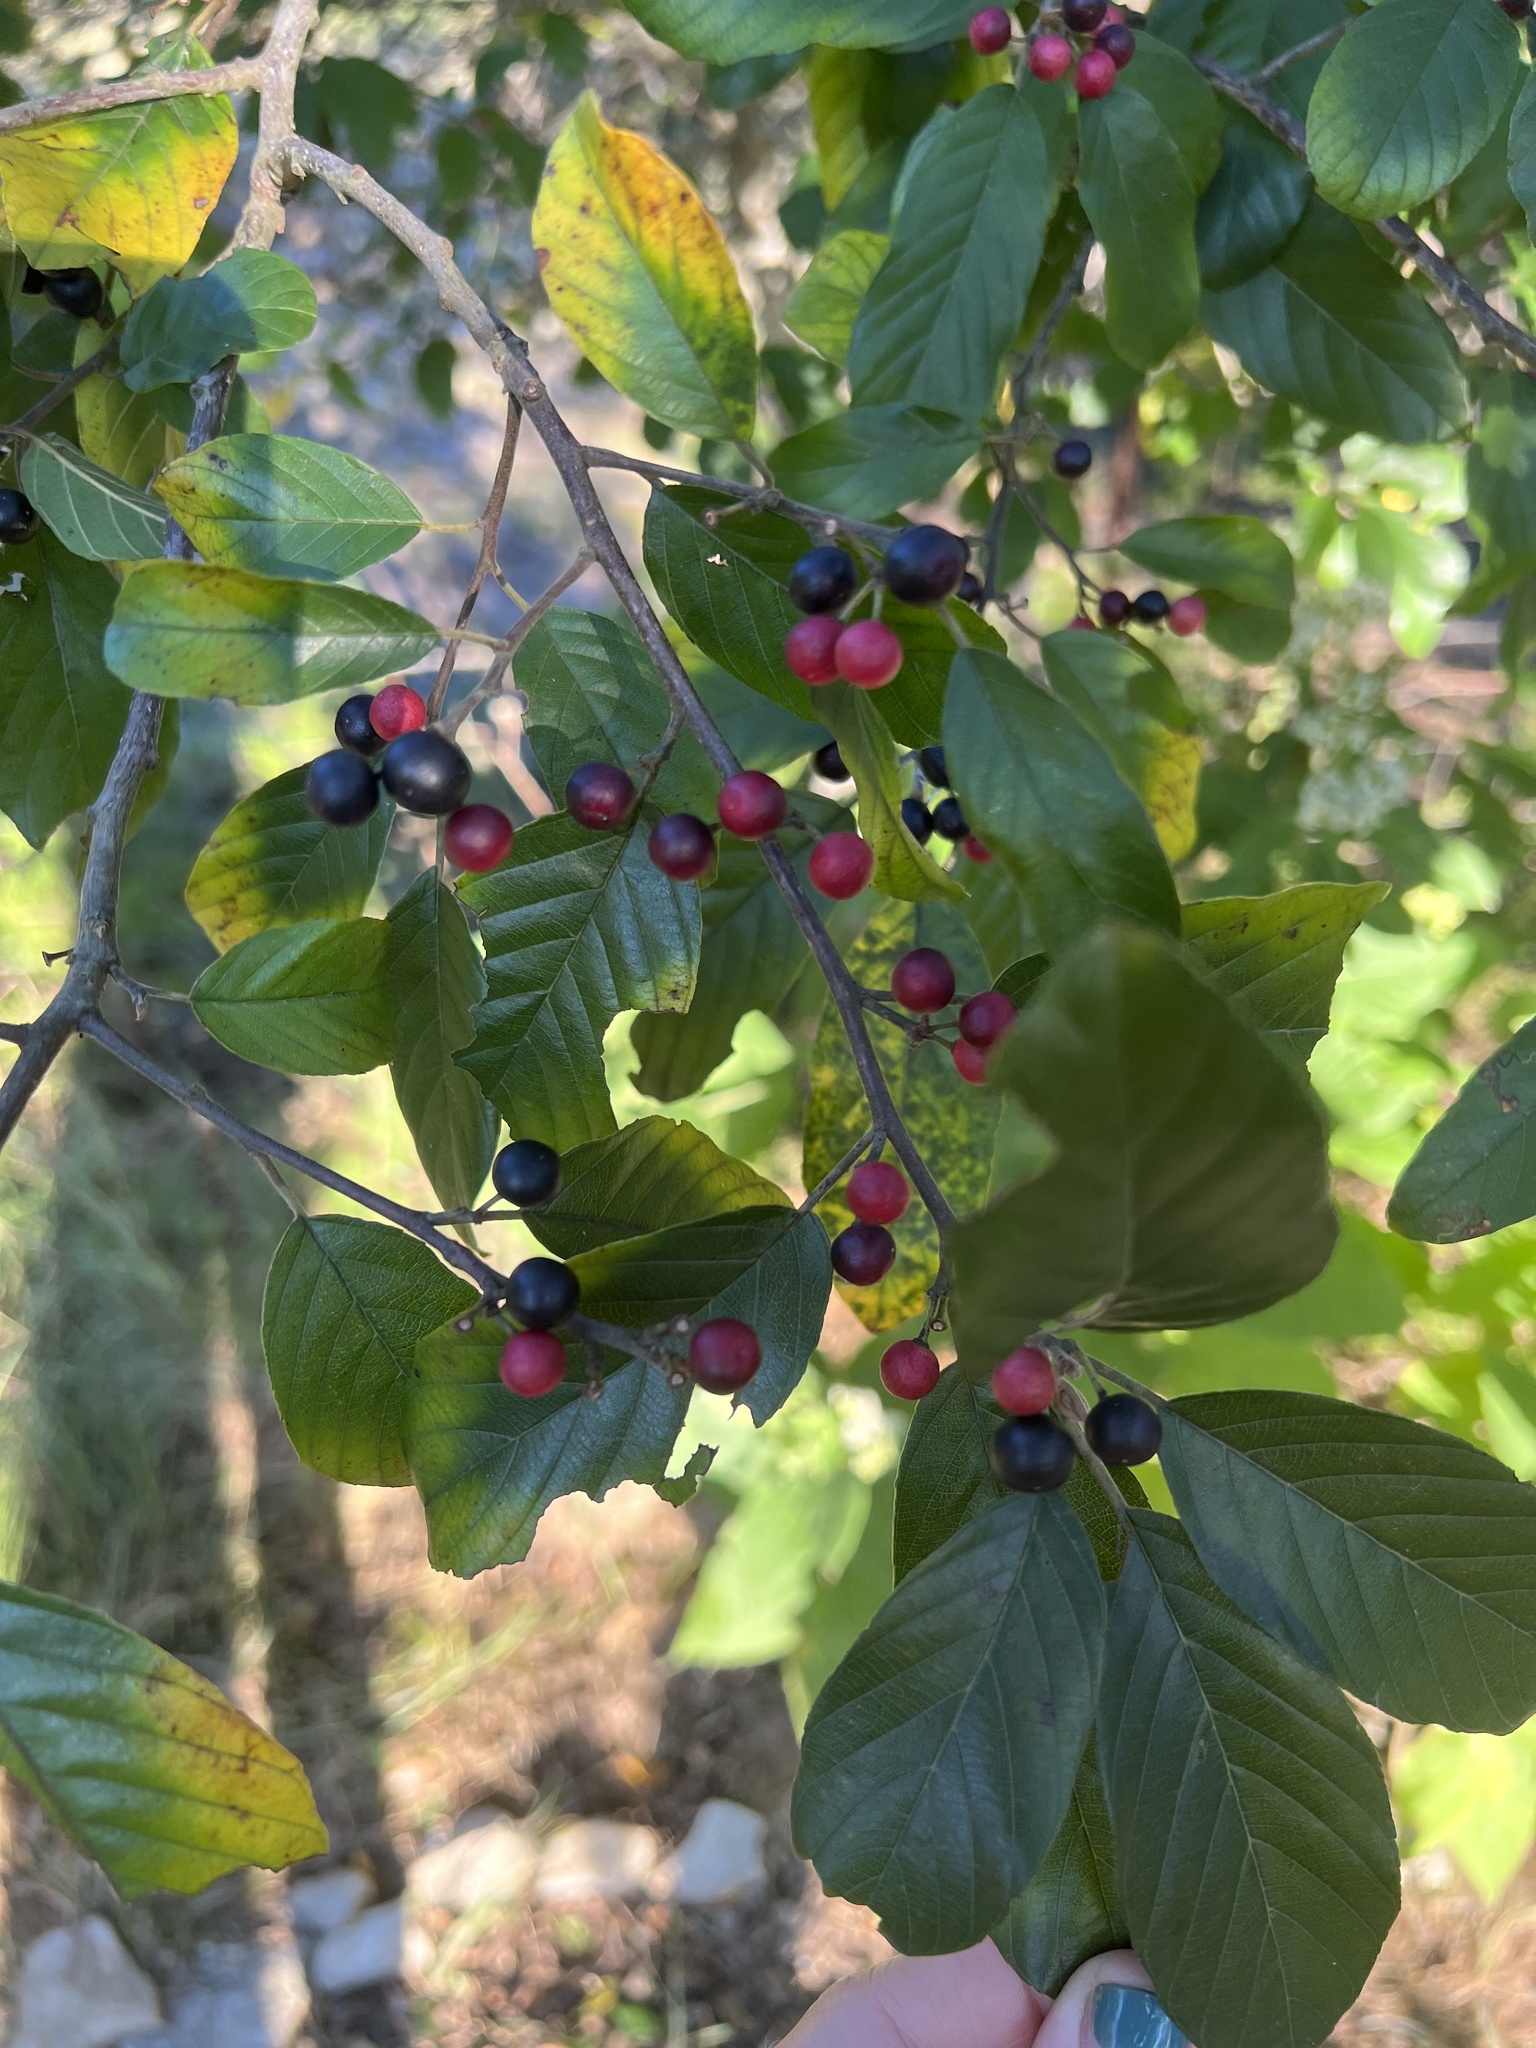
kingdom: Plantae
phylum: Tracheophyta
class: Magnoliopsida
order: Rosales
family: Rhamnaceae
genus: Frangula
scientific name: Frangula caroliniana
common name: Carolina buckthorn
